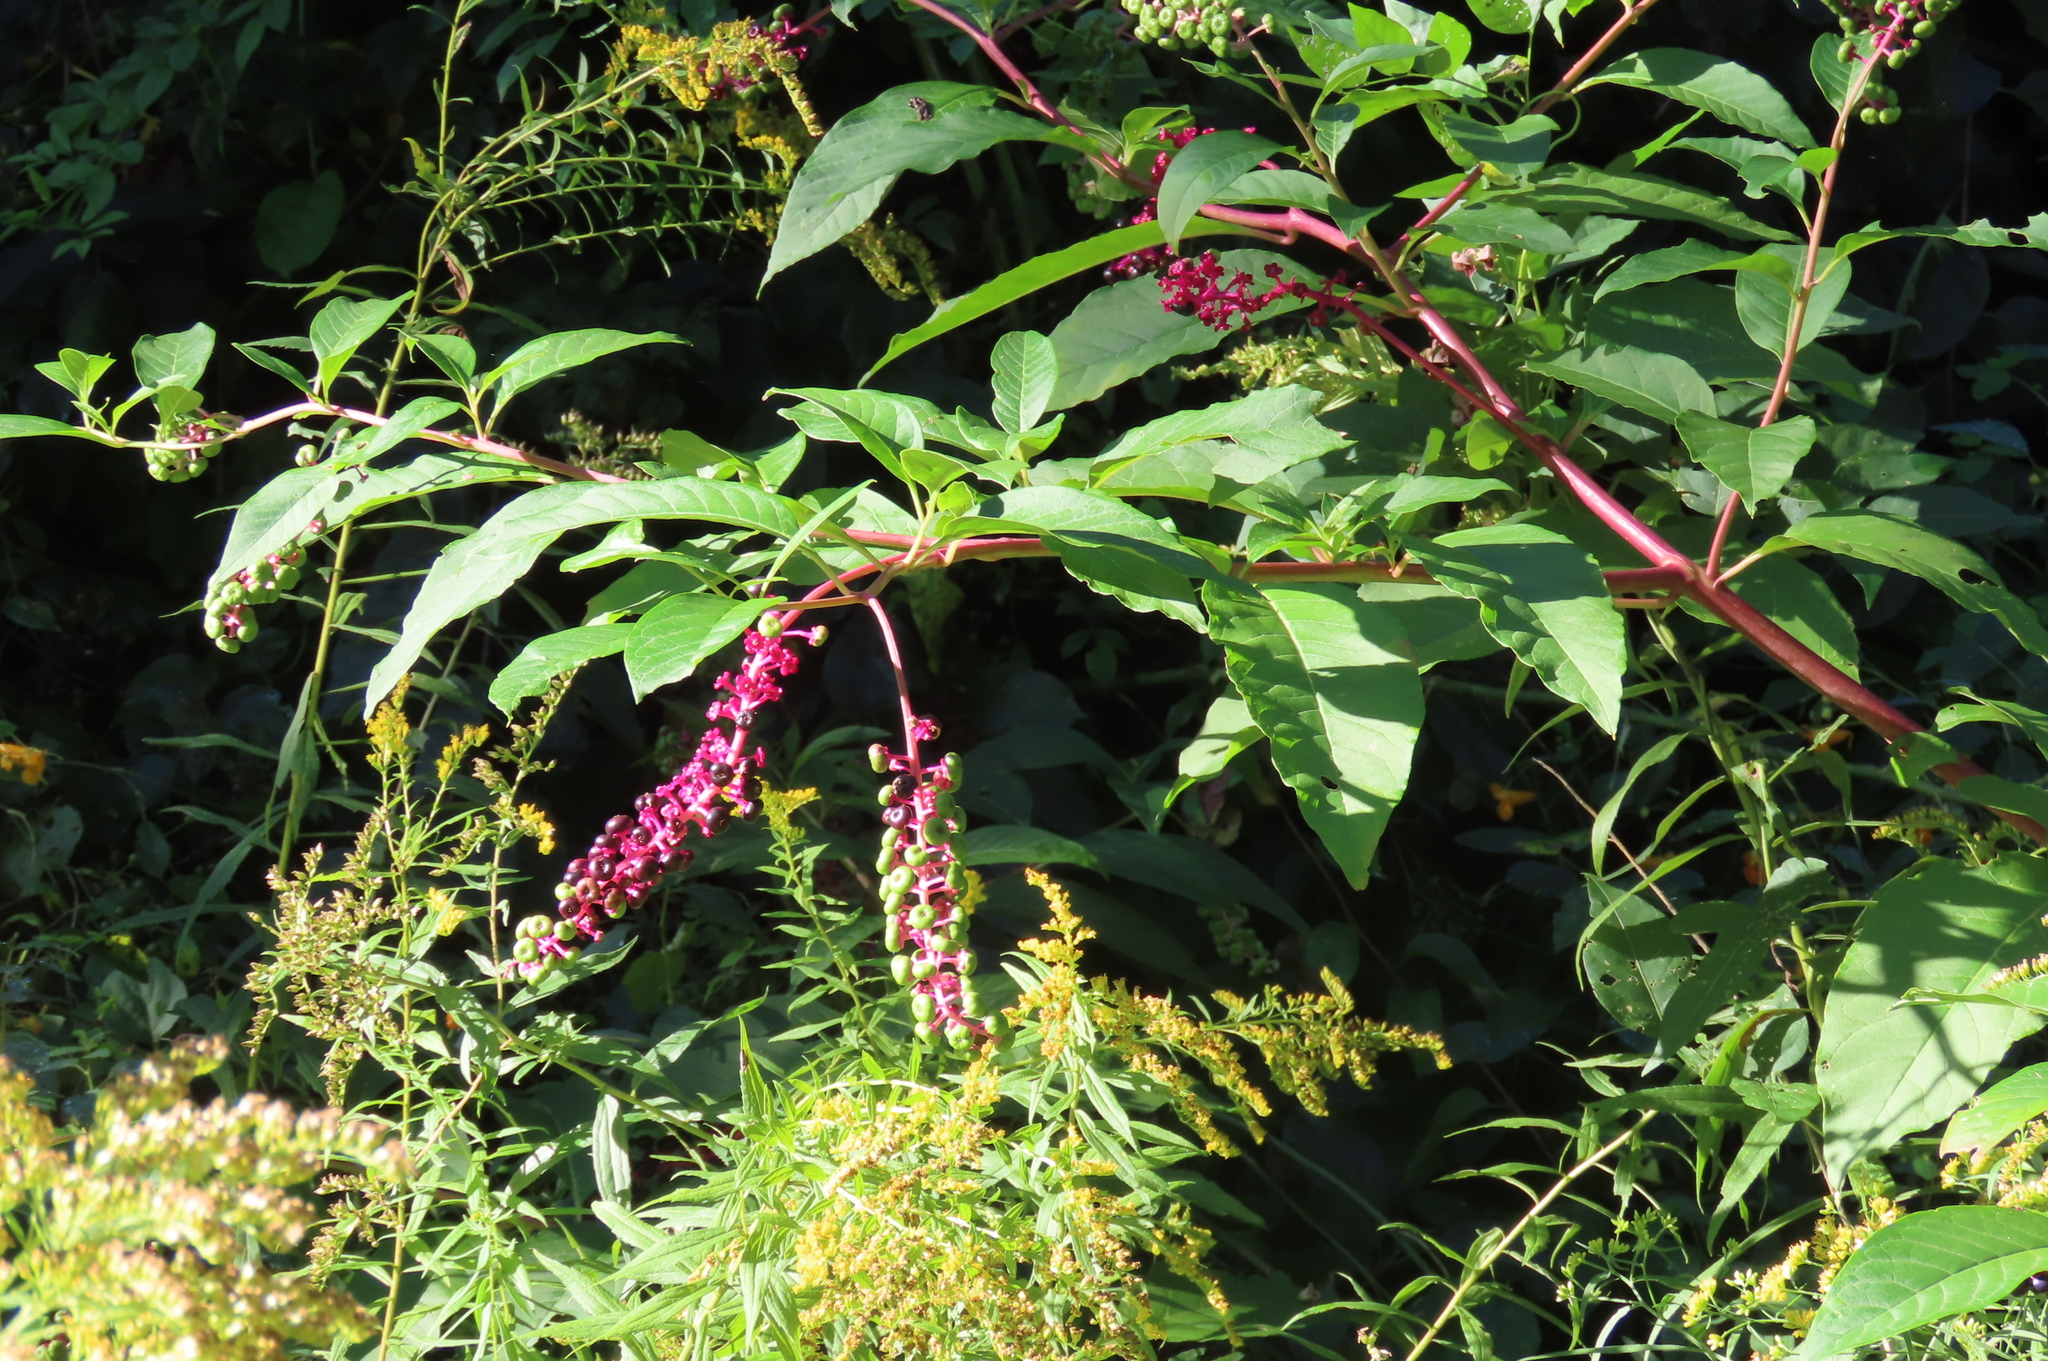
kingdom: Plantae
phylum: Tracheophyta
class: Magnoliopsida
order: Caryophyllales
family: Phytolaccaceae
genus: Phytolacca
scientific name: Phytolacca americana
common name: American pokeweed
